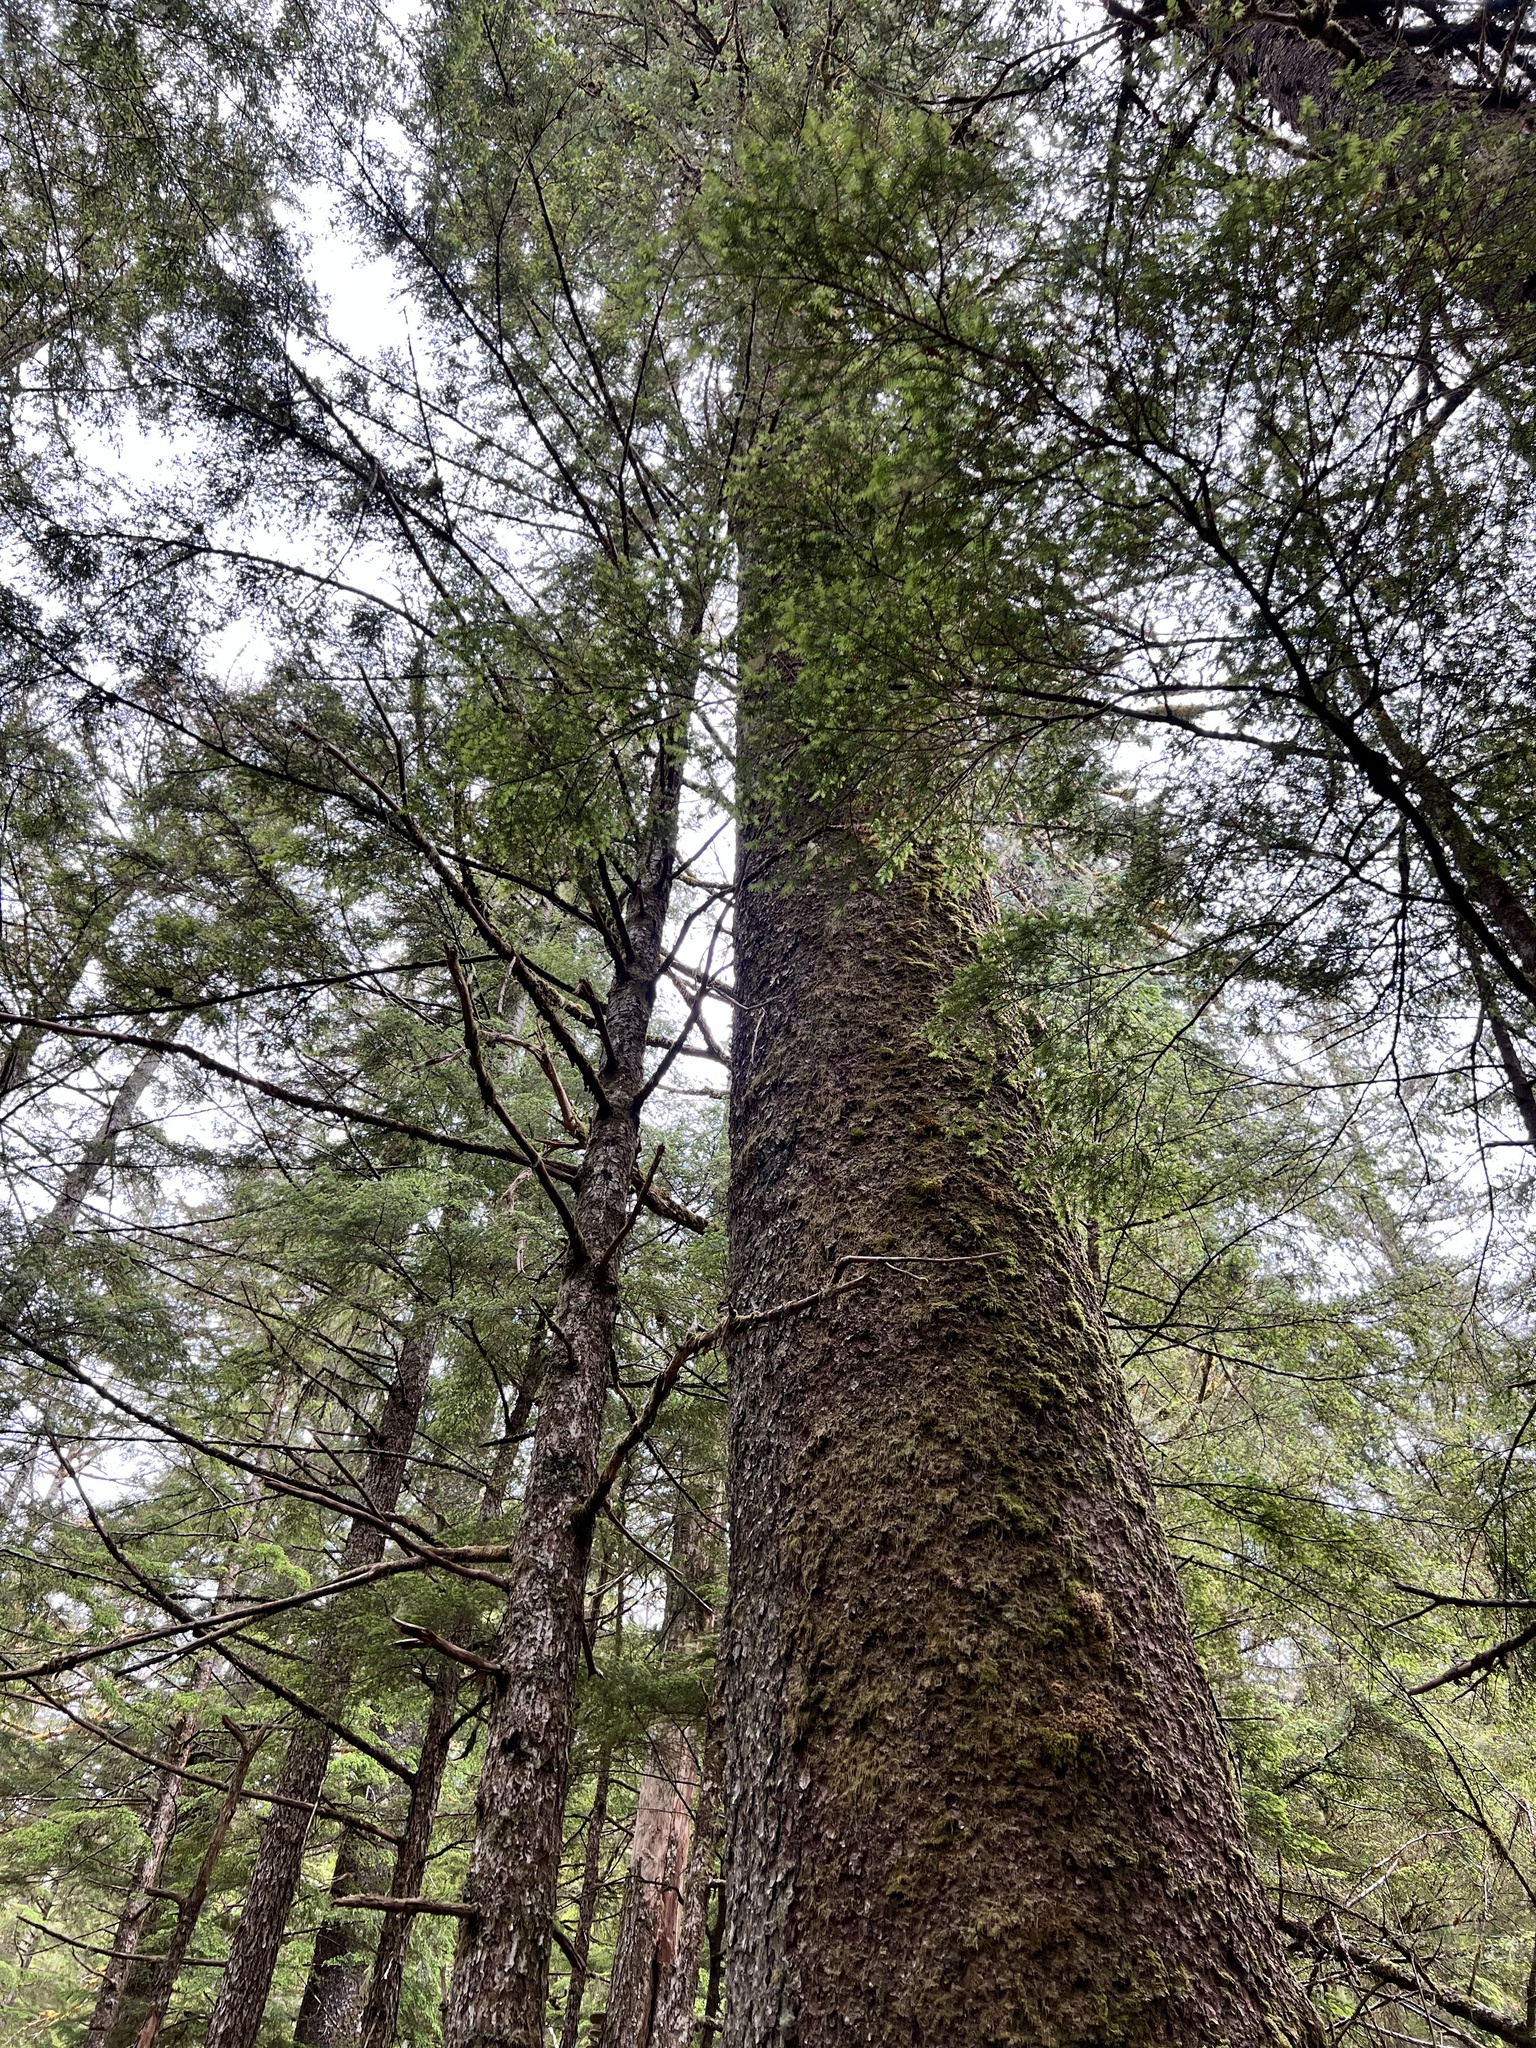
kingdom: Plantae
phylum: Tracheophyta
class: Pinopsida
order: Pinales
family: Pinaceae
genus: Picea
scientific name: Picea sitchensis
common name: Sitka spruce
